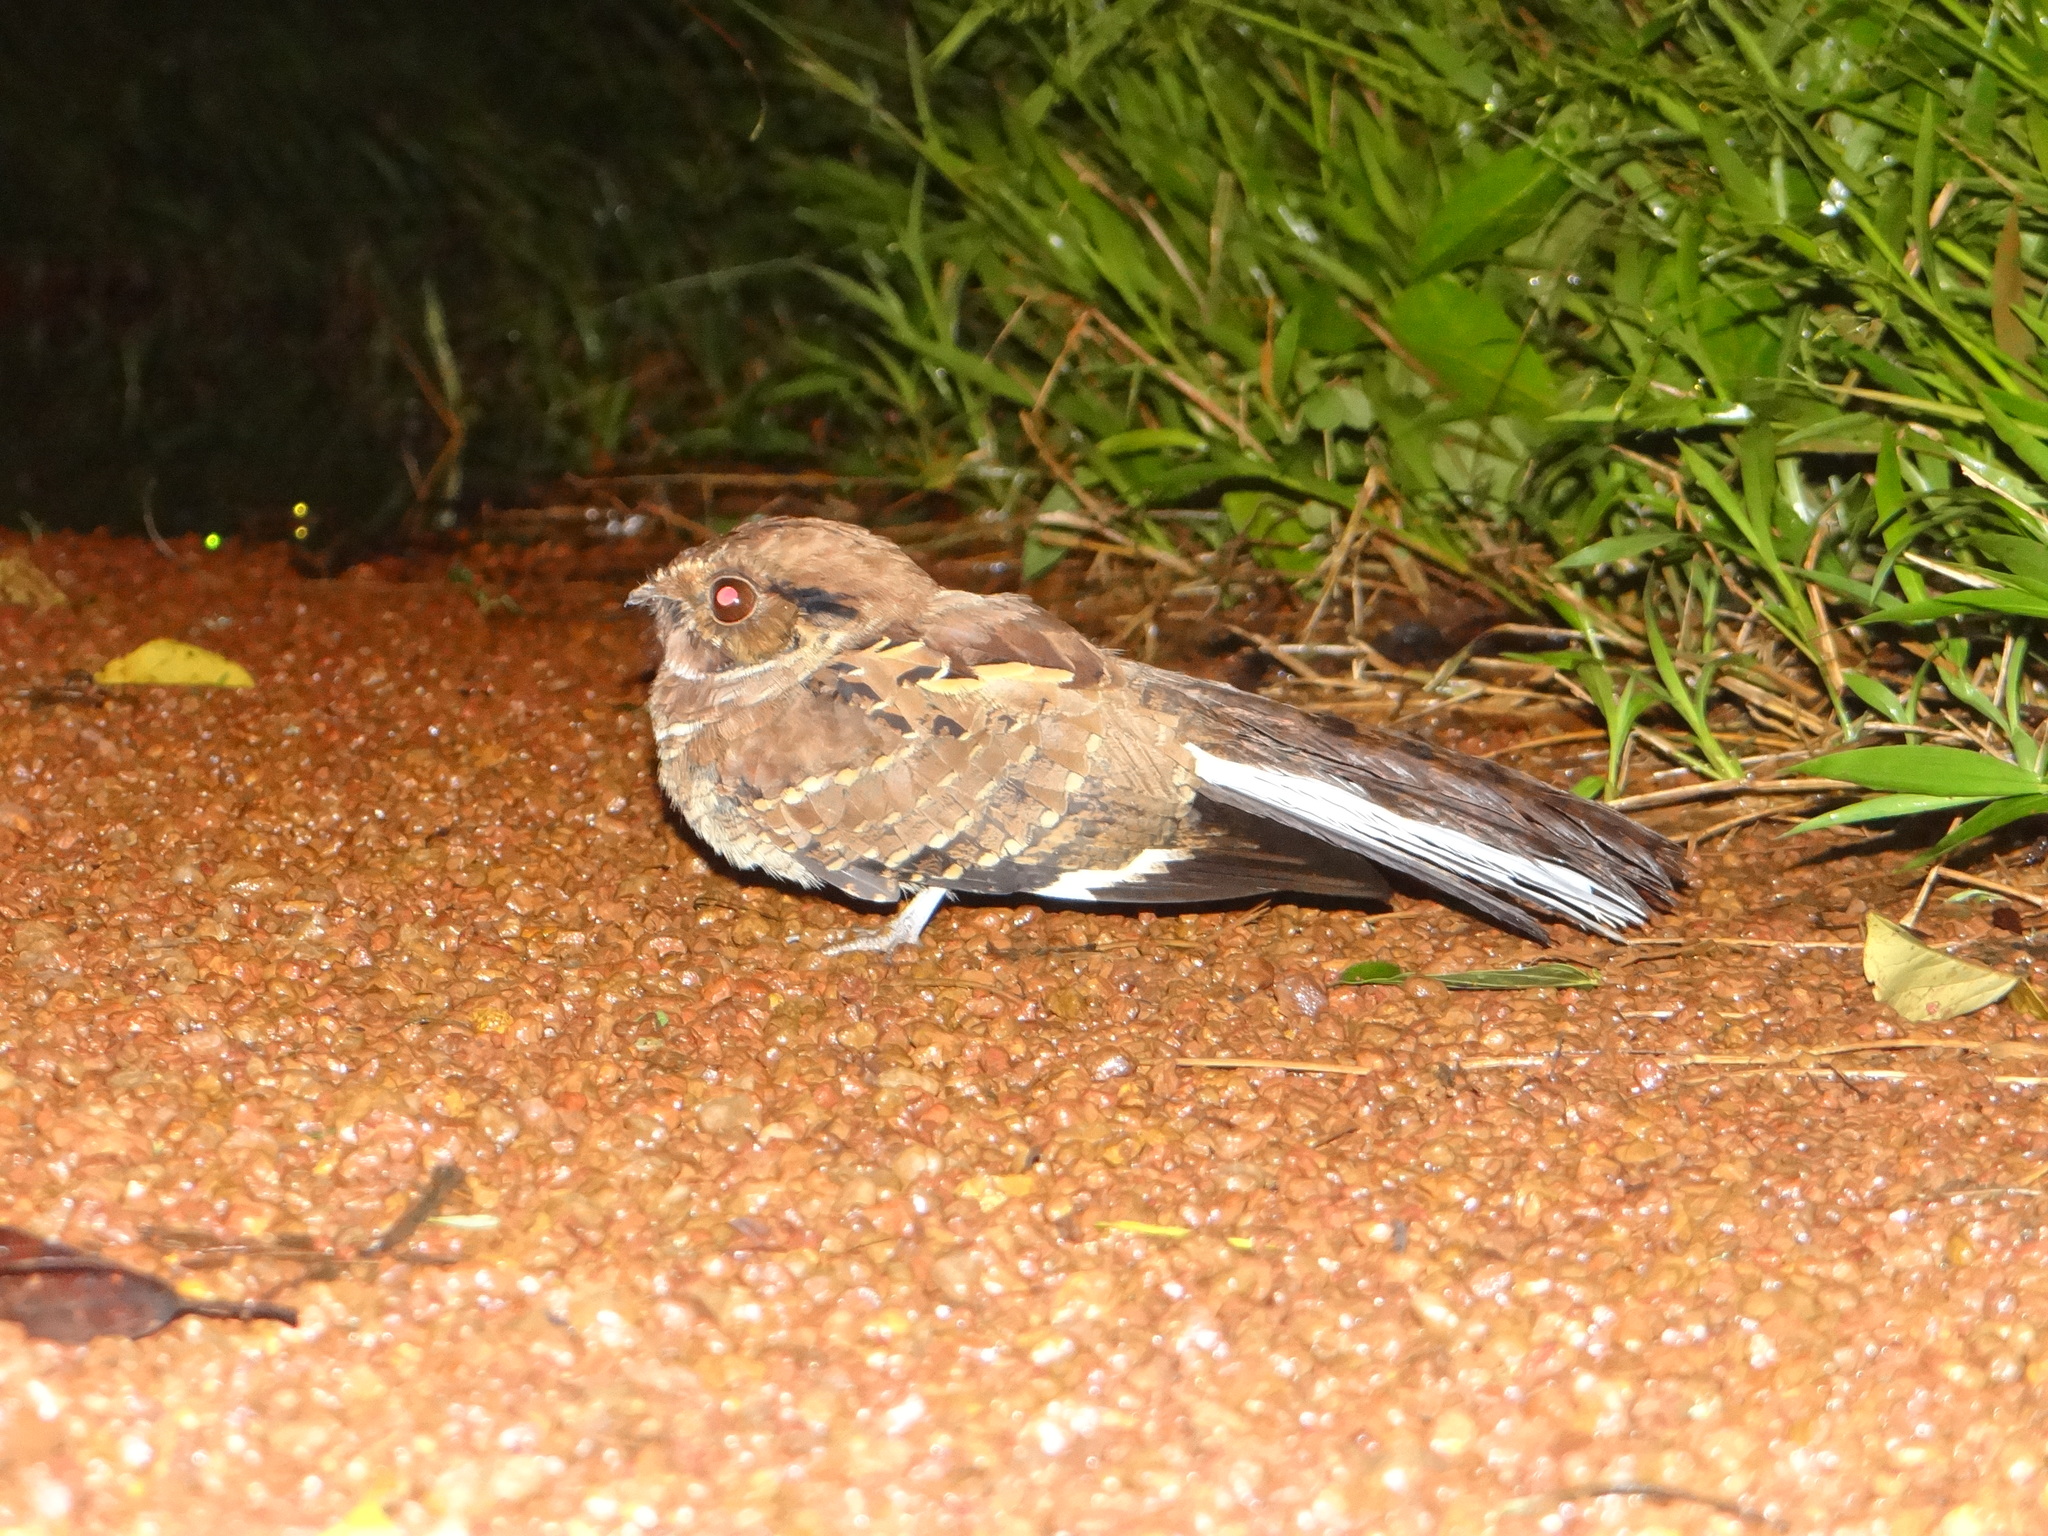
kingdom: Animalia
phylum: Chordata
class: Aves
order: Caprimulgiformes
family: Caprimulgidae
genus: Nyctidromus
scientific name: Nyctidromus albicollis
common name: Pauraque
